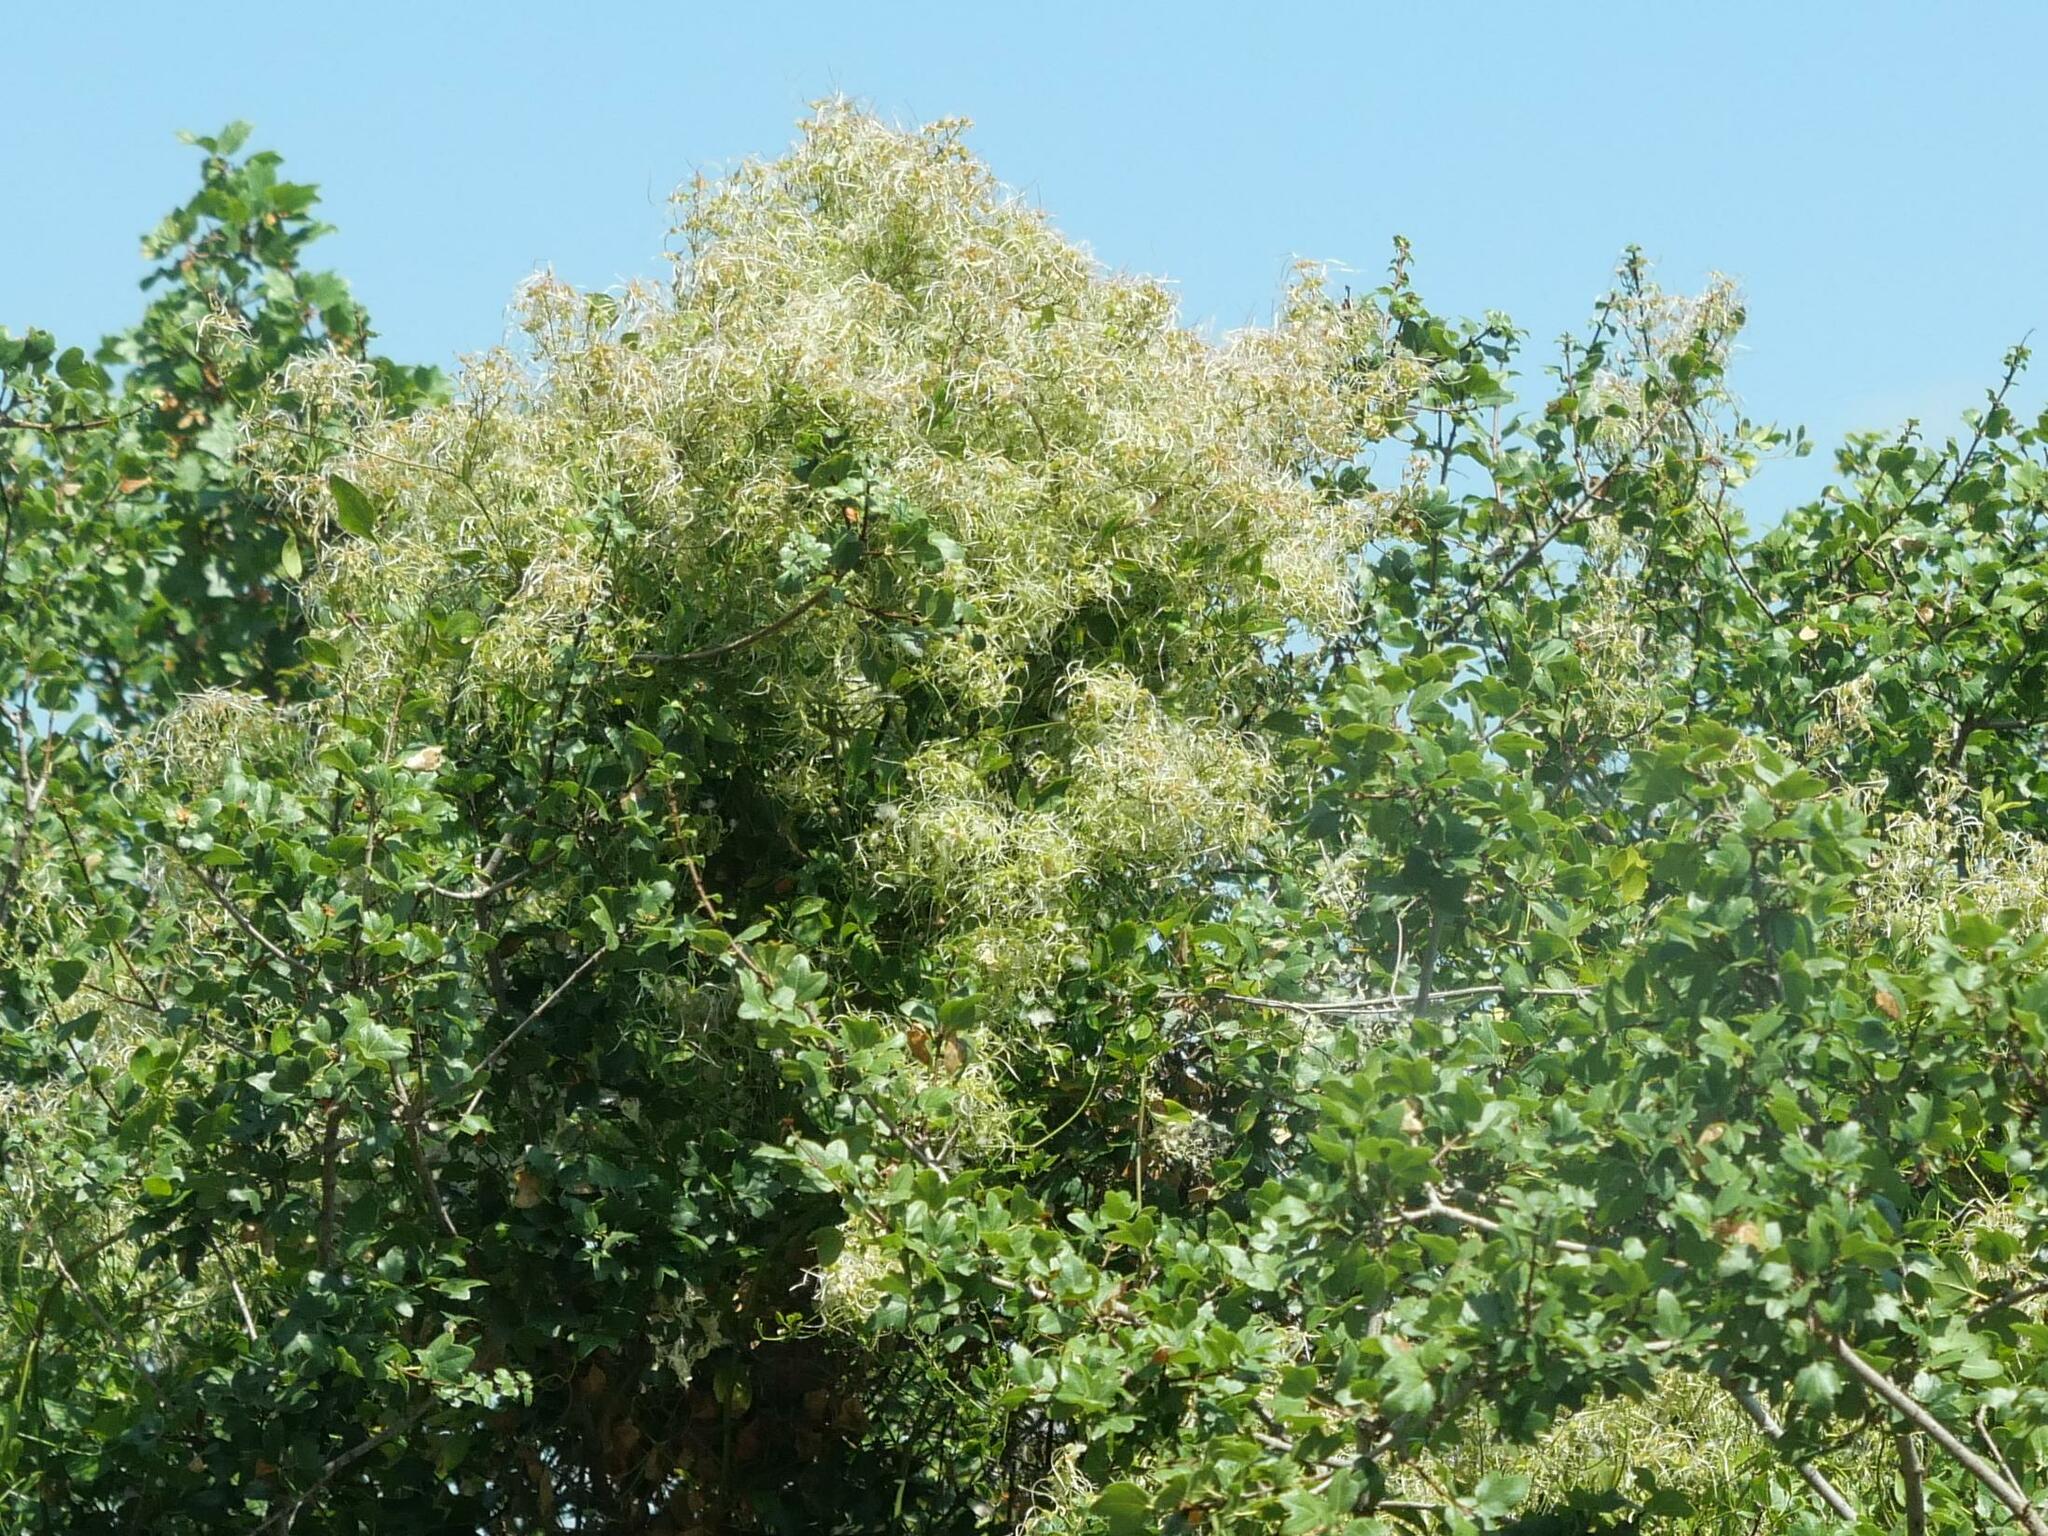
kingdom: Plantae
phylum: Tracheophyta
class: Magnoliopsida
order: Ranunculales
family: Ranunculaceae
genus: Clematis
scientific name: Clematis flammula
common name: Virgin's-bower
